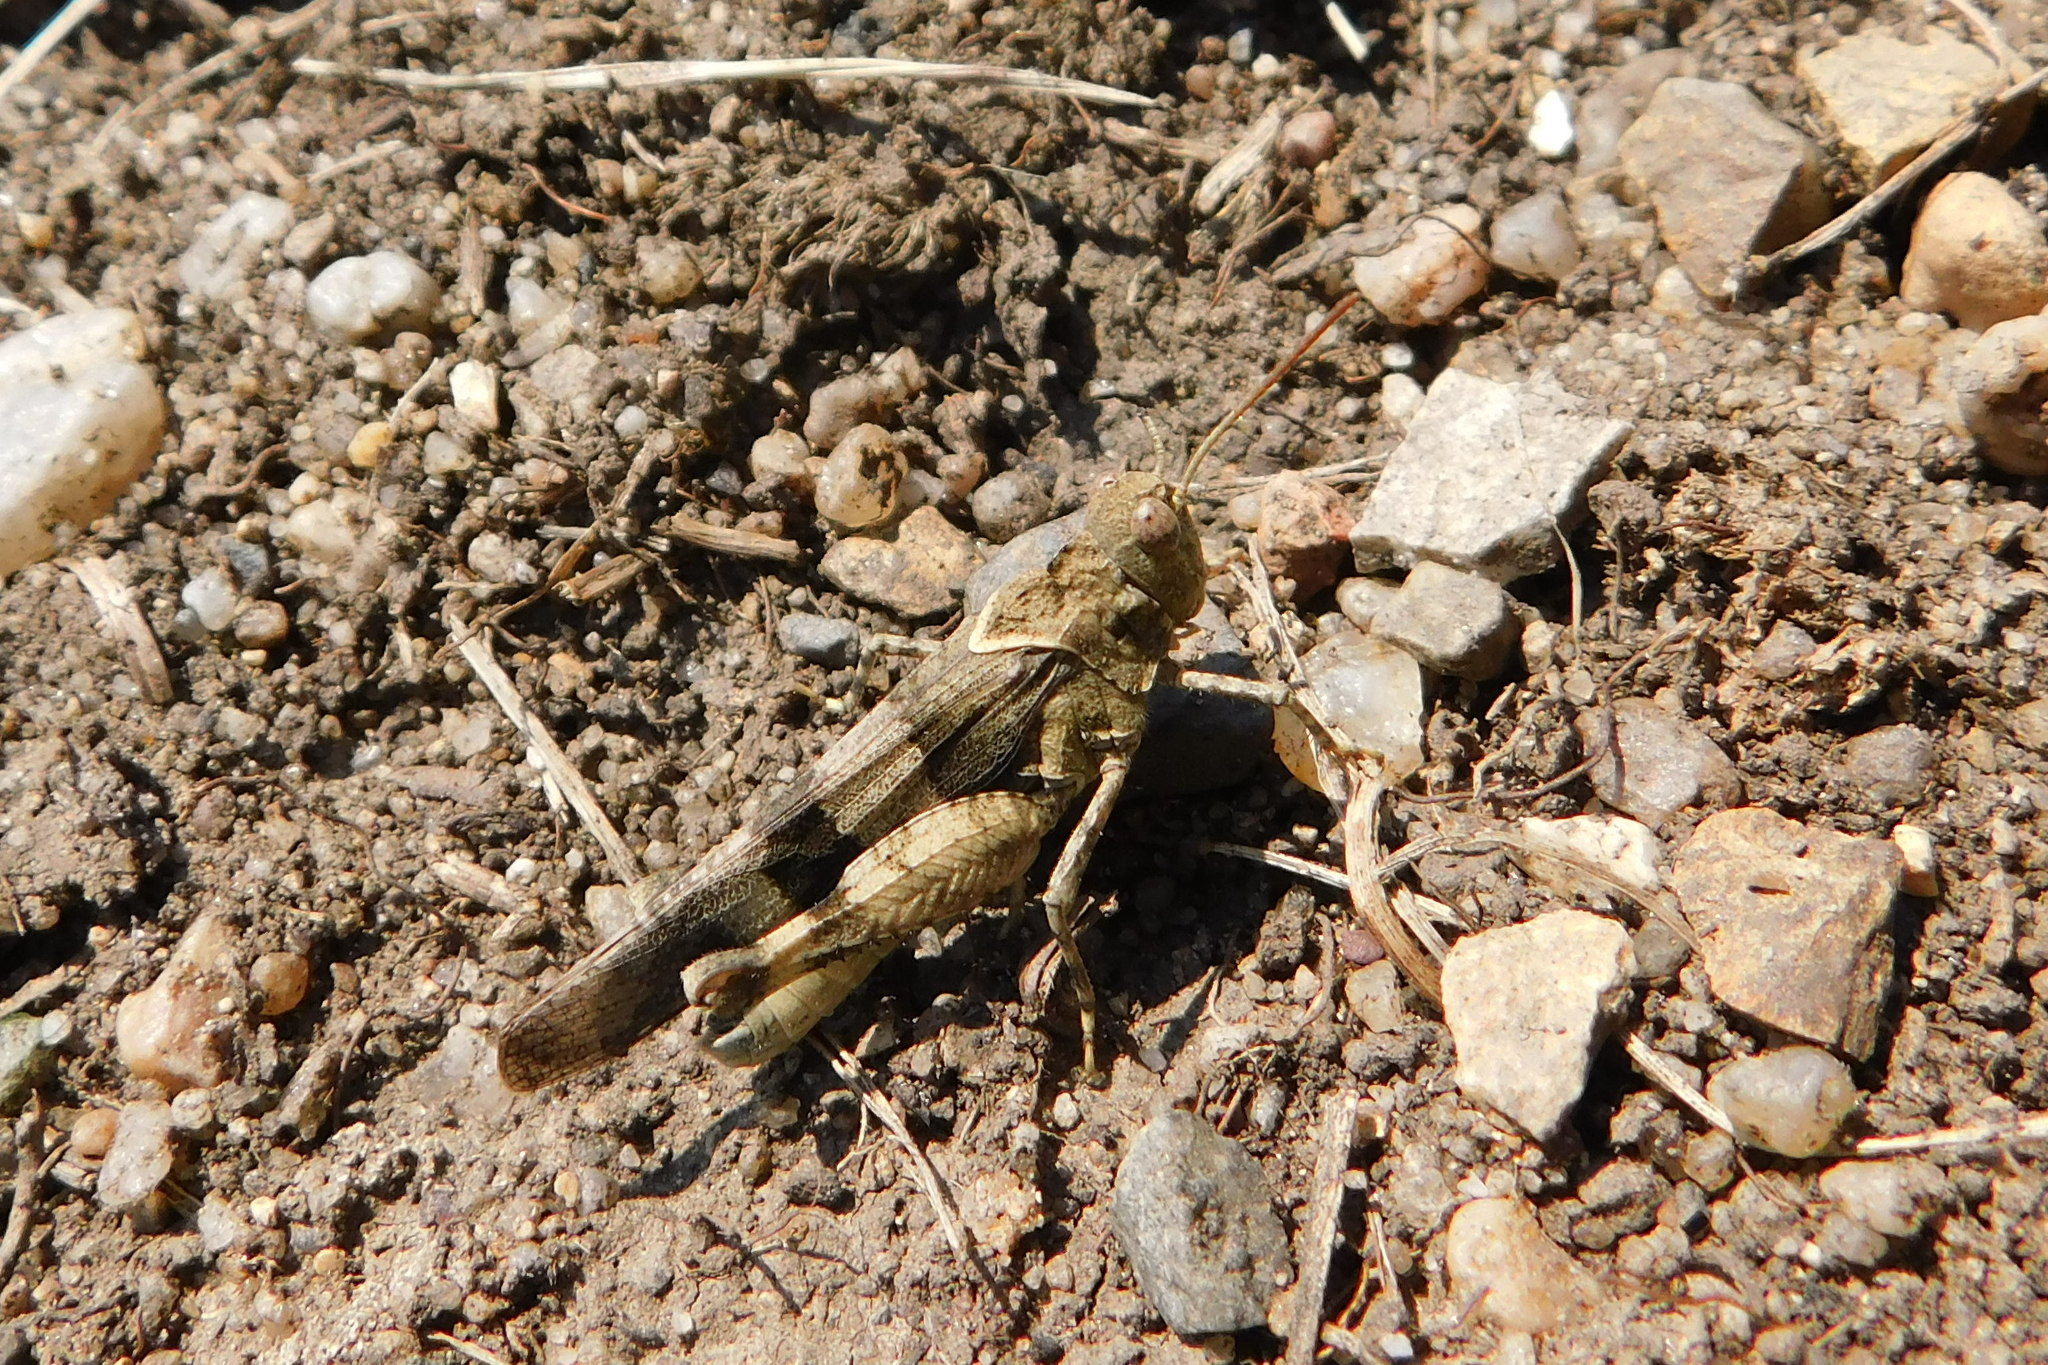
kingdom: Animalia
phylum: Arthropoda
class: Insecta
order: Orthoptera
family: Acrididae
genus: Oedipoda
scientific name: Oedipoda caerulescens
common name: Blue-winged grasshopper
